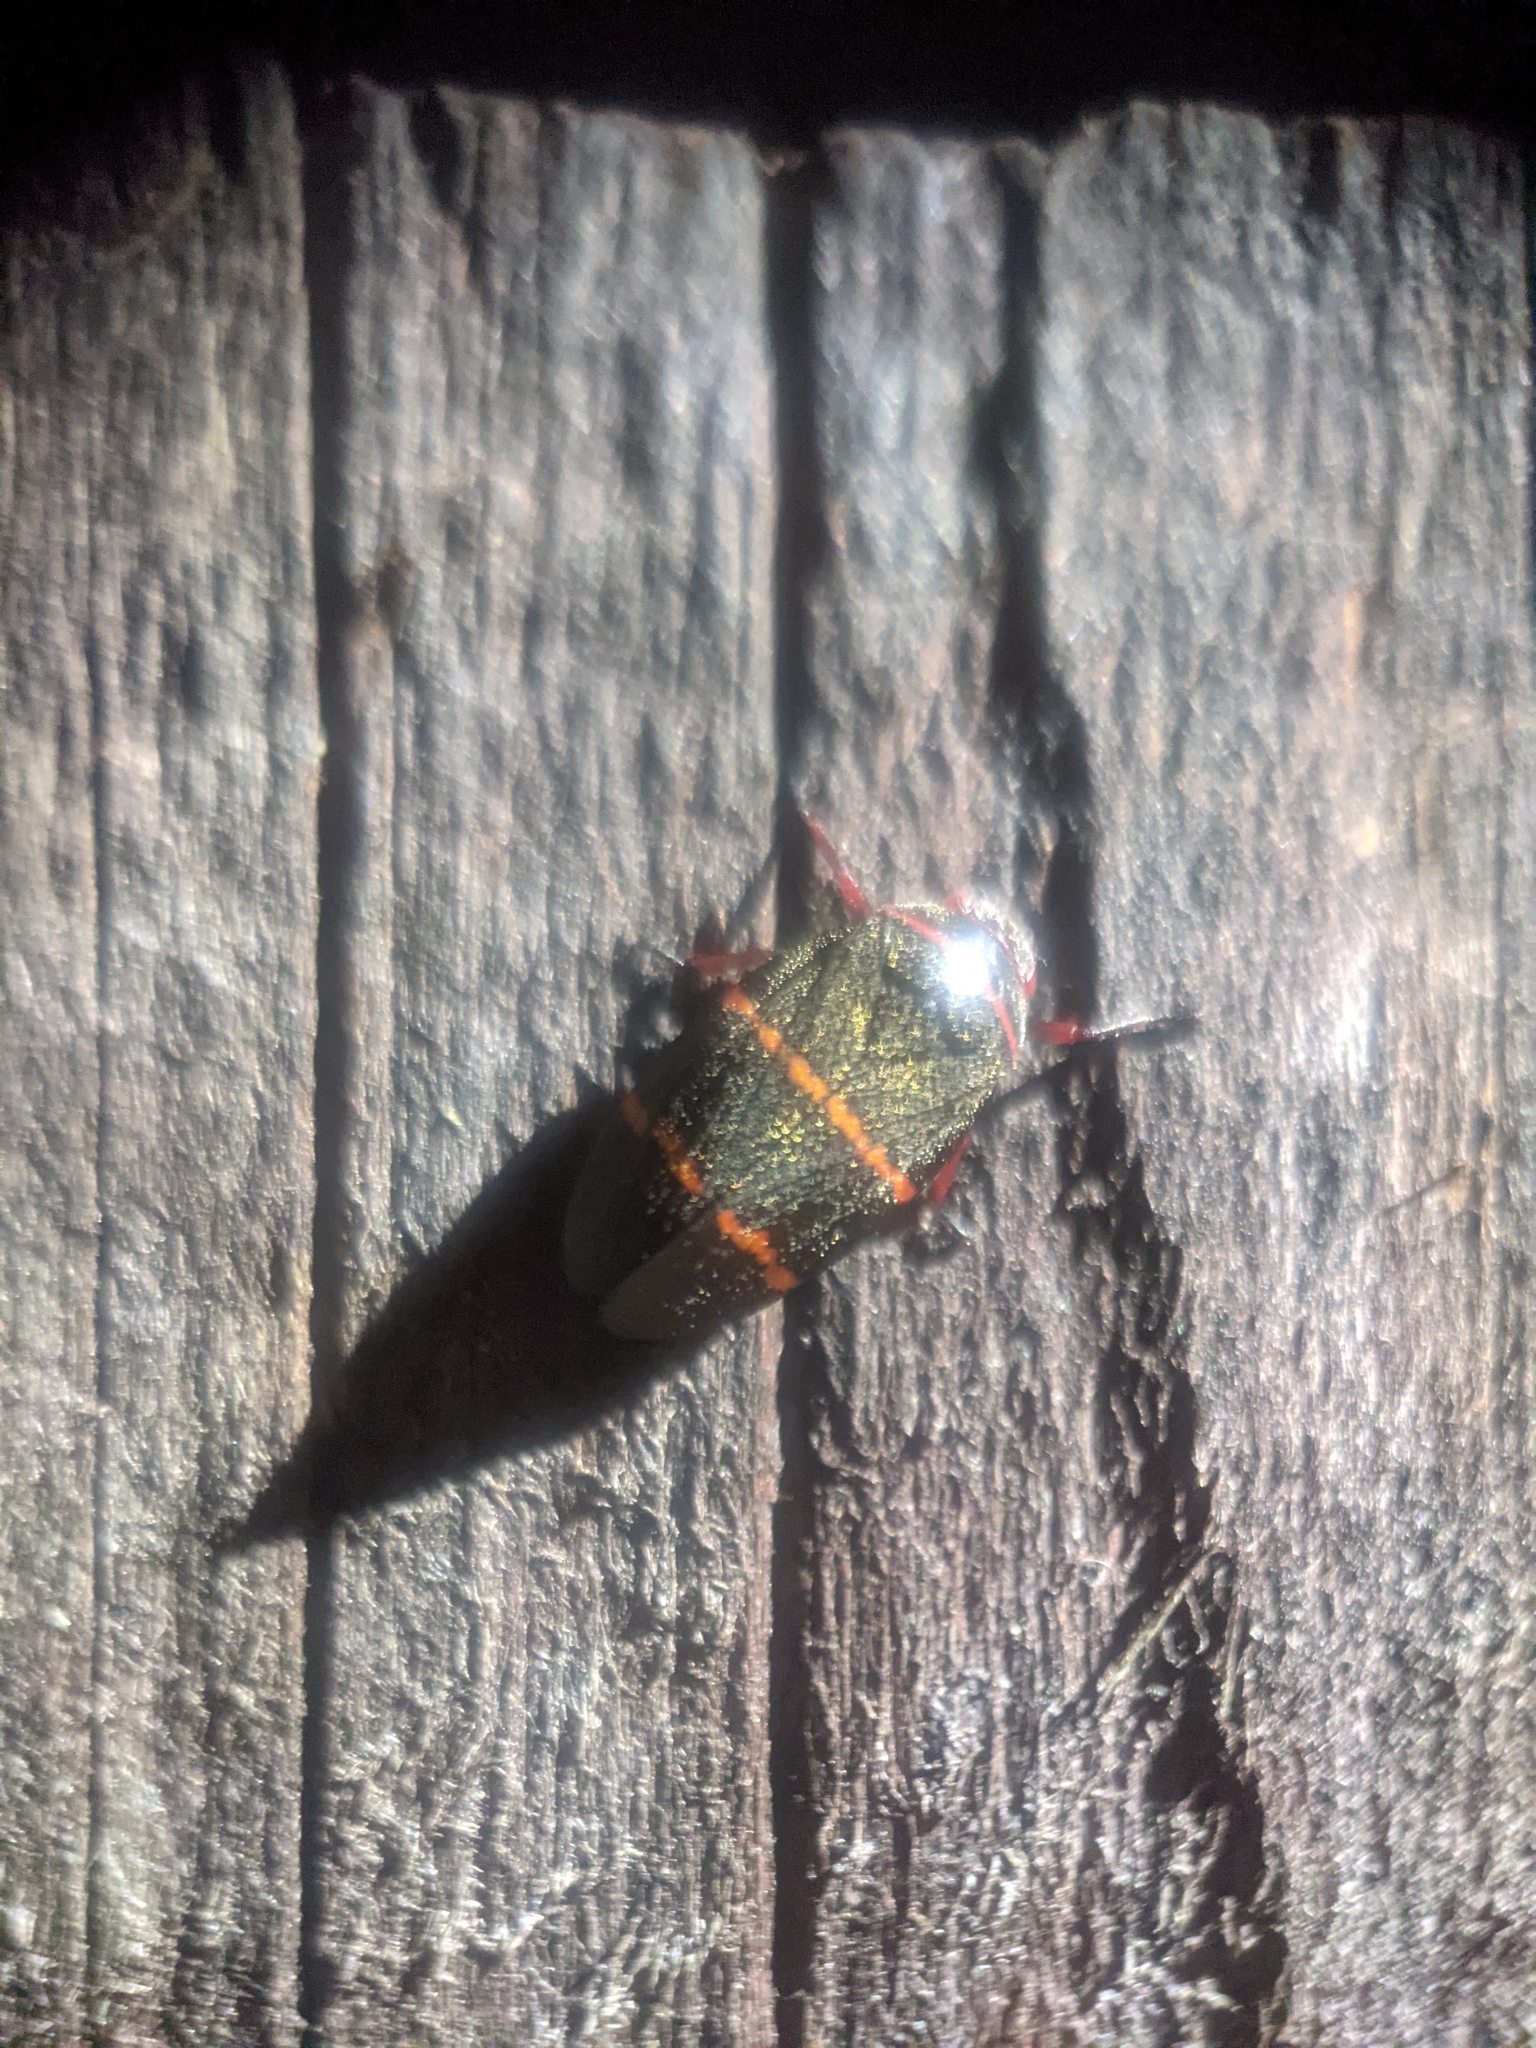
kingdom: Animalia
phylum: Arthropoda
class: Insecta
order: Hemiptera
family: Cercopidae
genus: Prosapia
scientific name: Prosapia bicincta
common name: Twolined spittlebug
